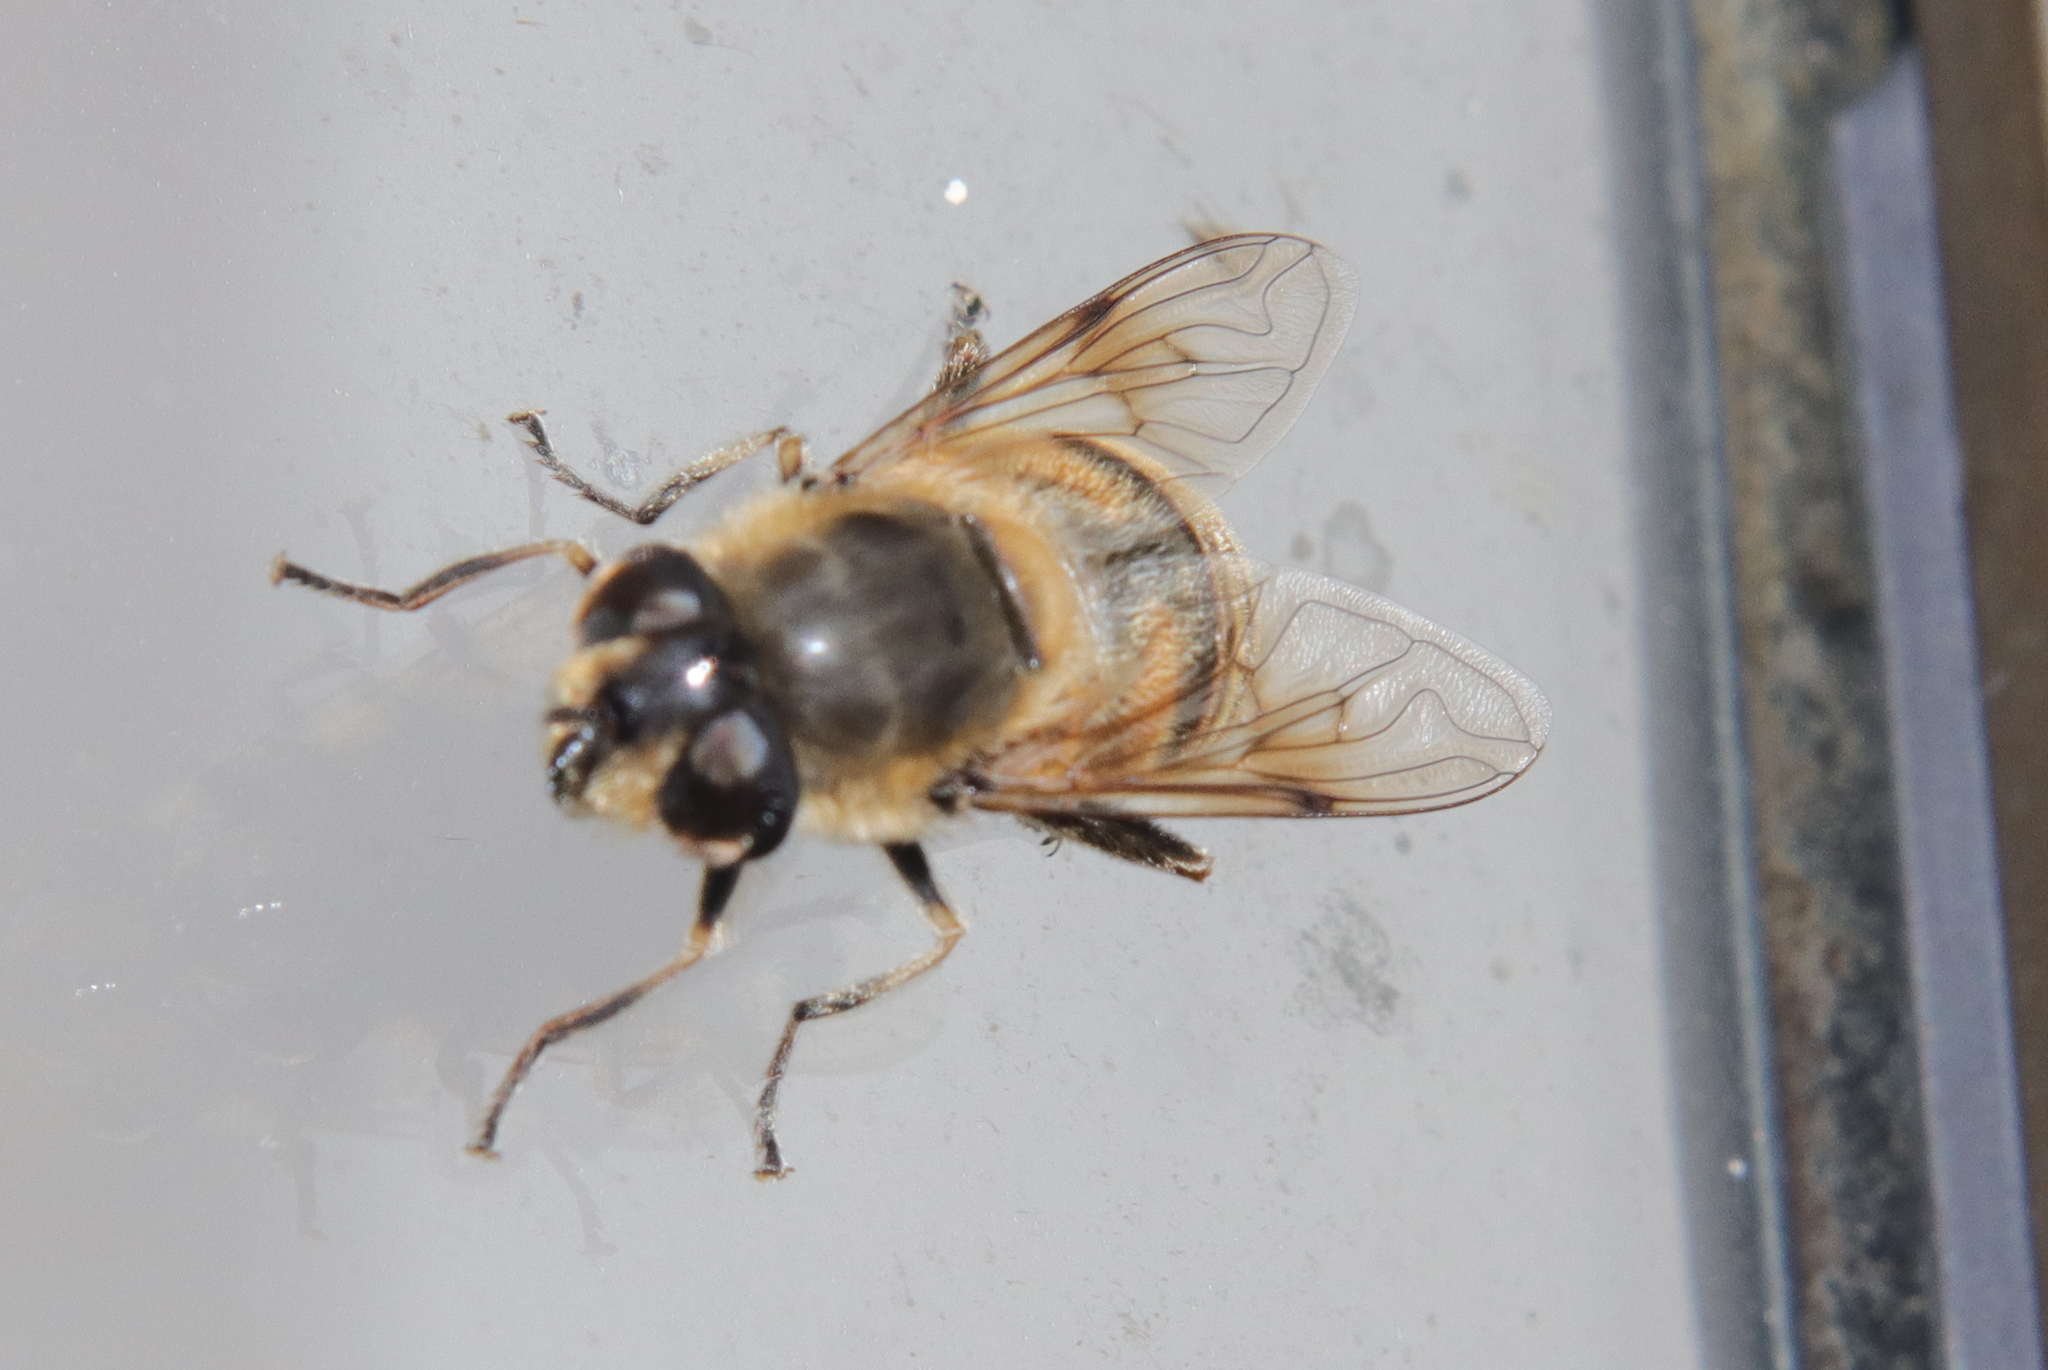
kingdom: Animalia
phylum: Arthropoda
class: Insecta
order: Diptera
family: Syrphidae
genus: Eristalis
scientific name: Eristalis tenax
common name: Drone fly
